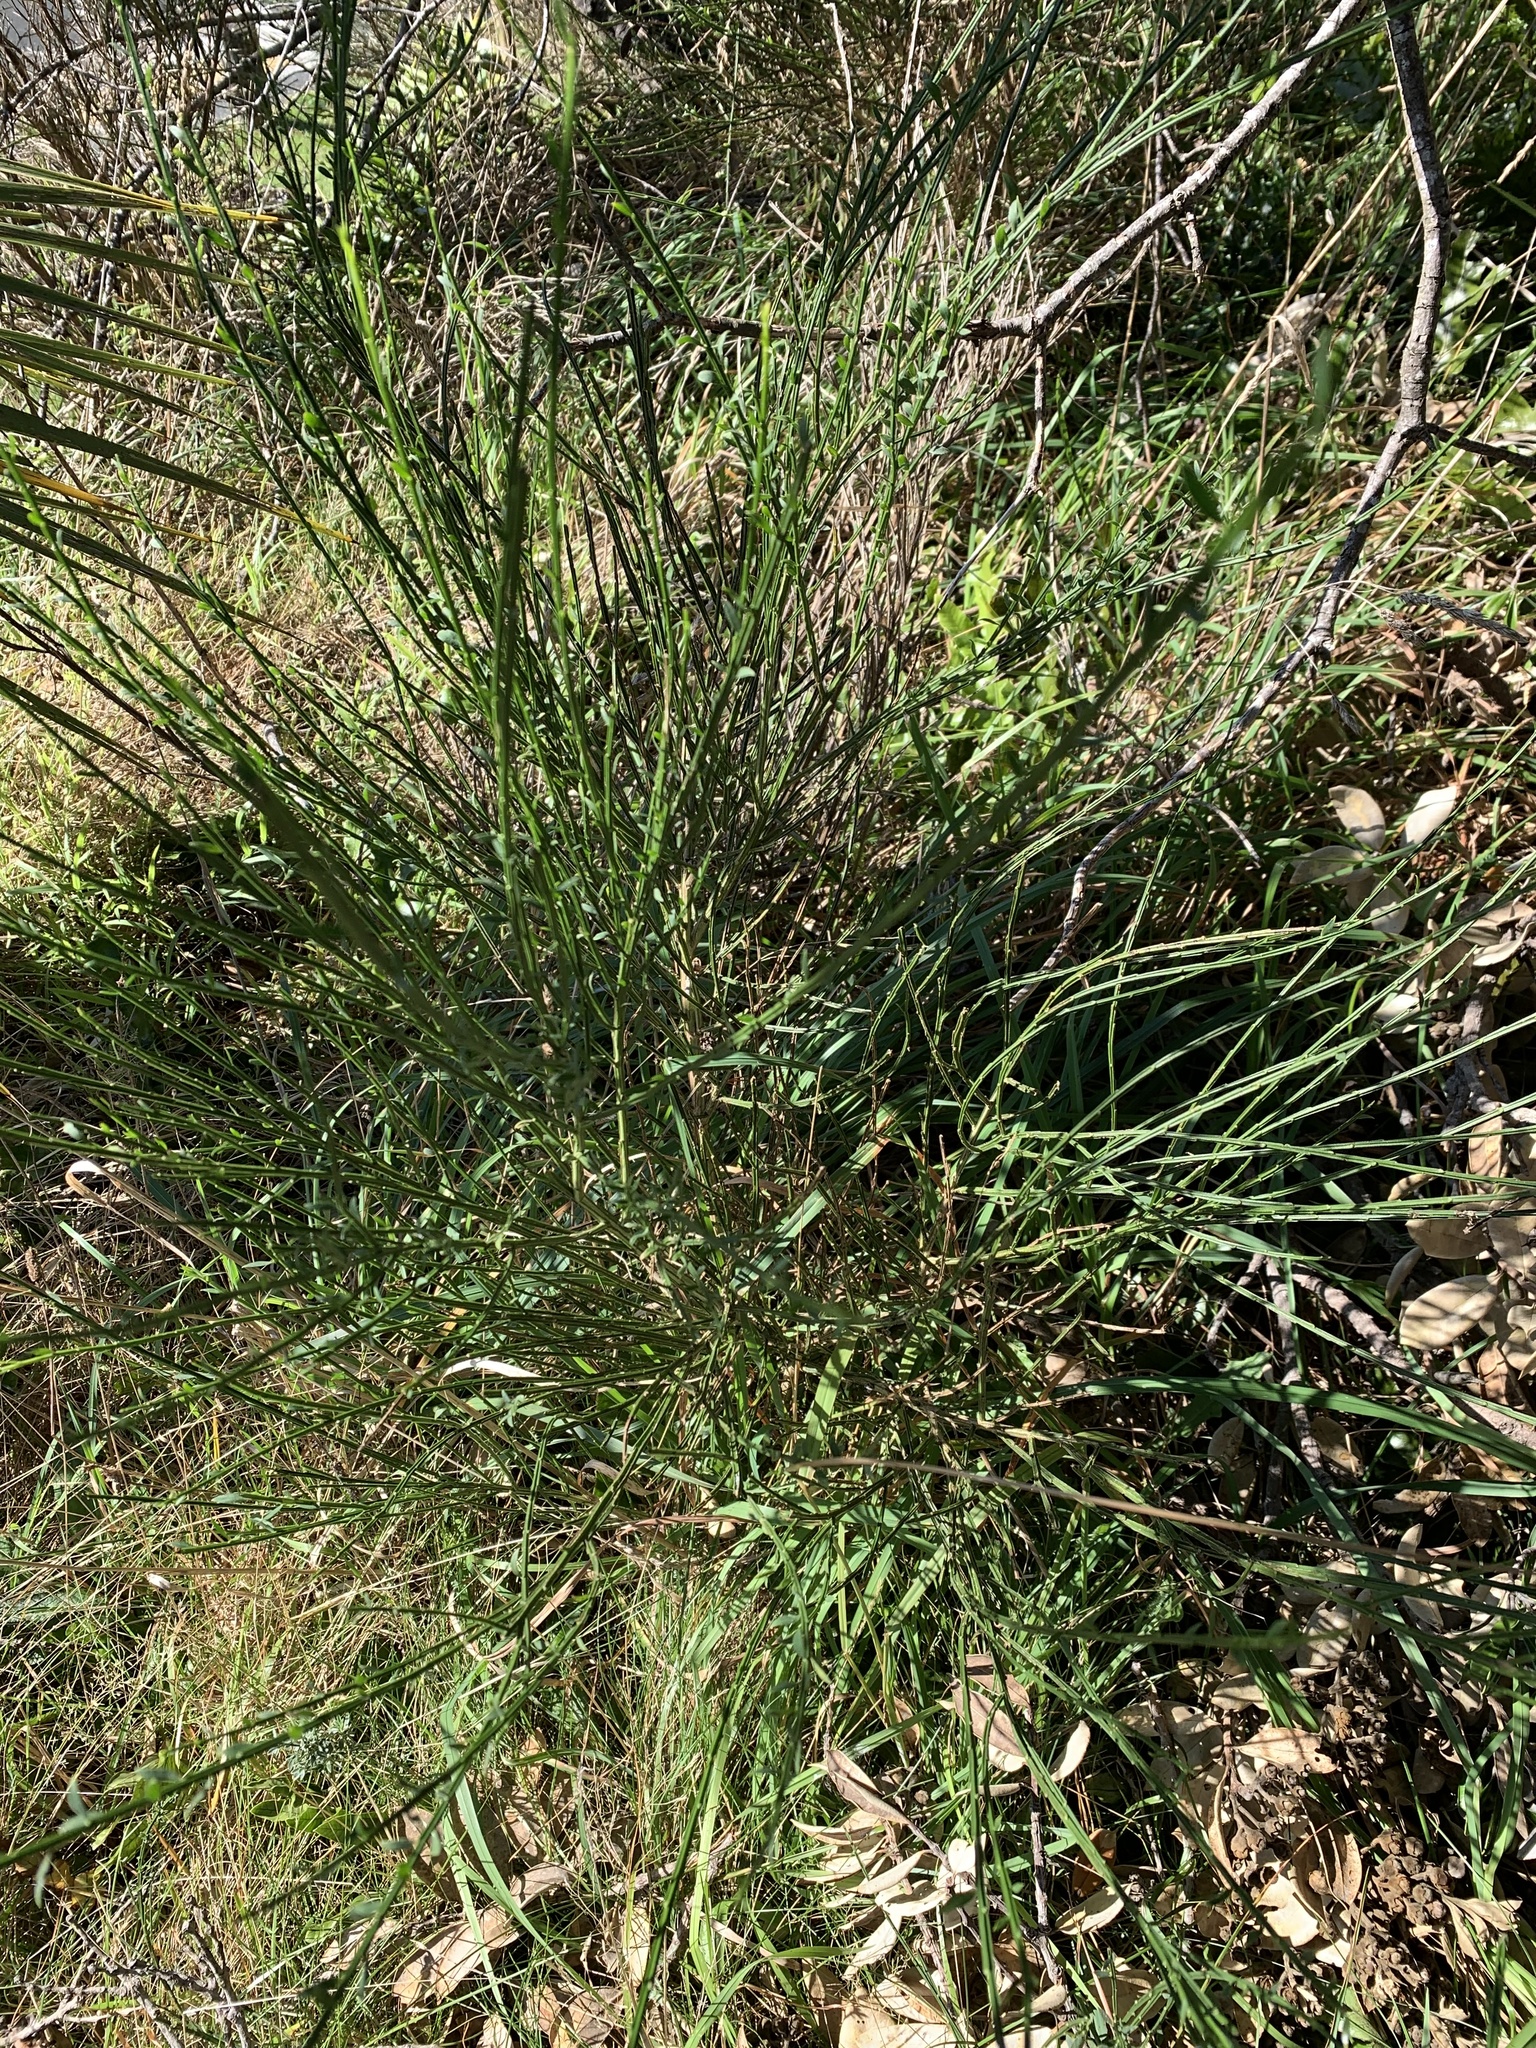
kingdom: Plantae
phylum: Tracheophyta
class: Magnoliopsida
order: Fabales
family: Fabaceae
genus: Cytisus
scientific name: Cytisus scoparius
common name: Scotch broom
